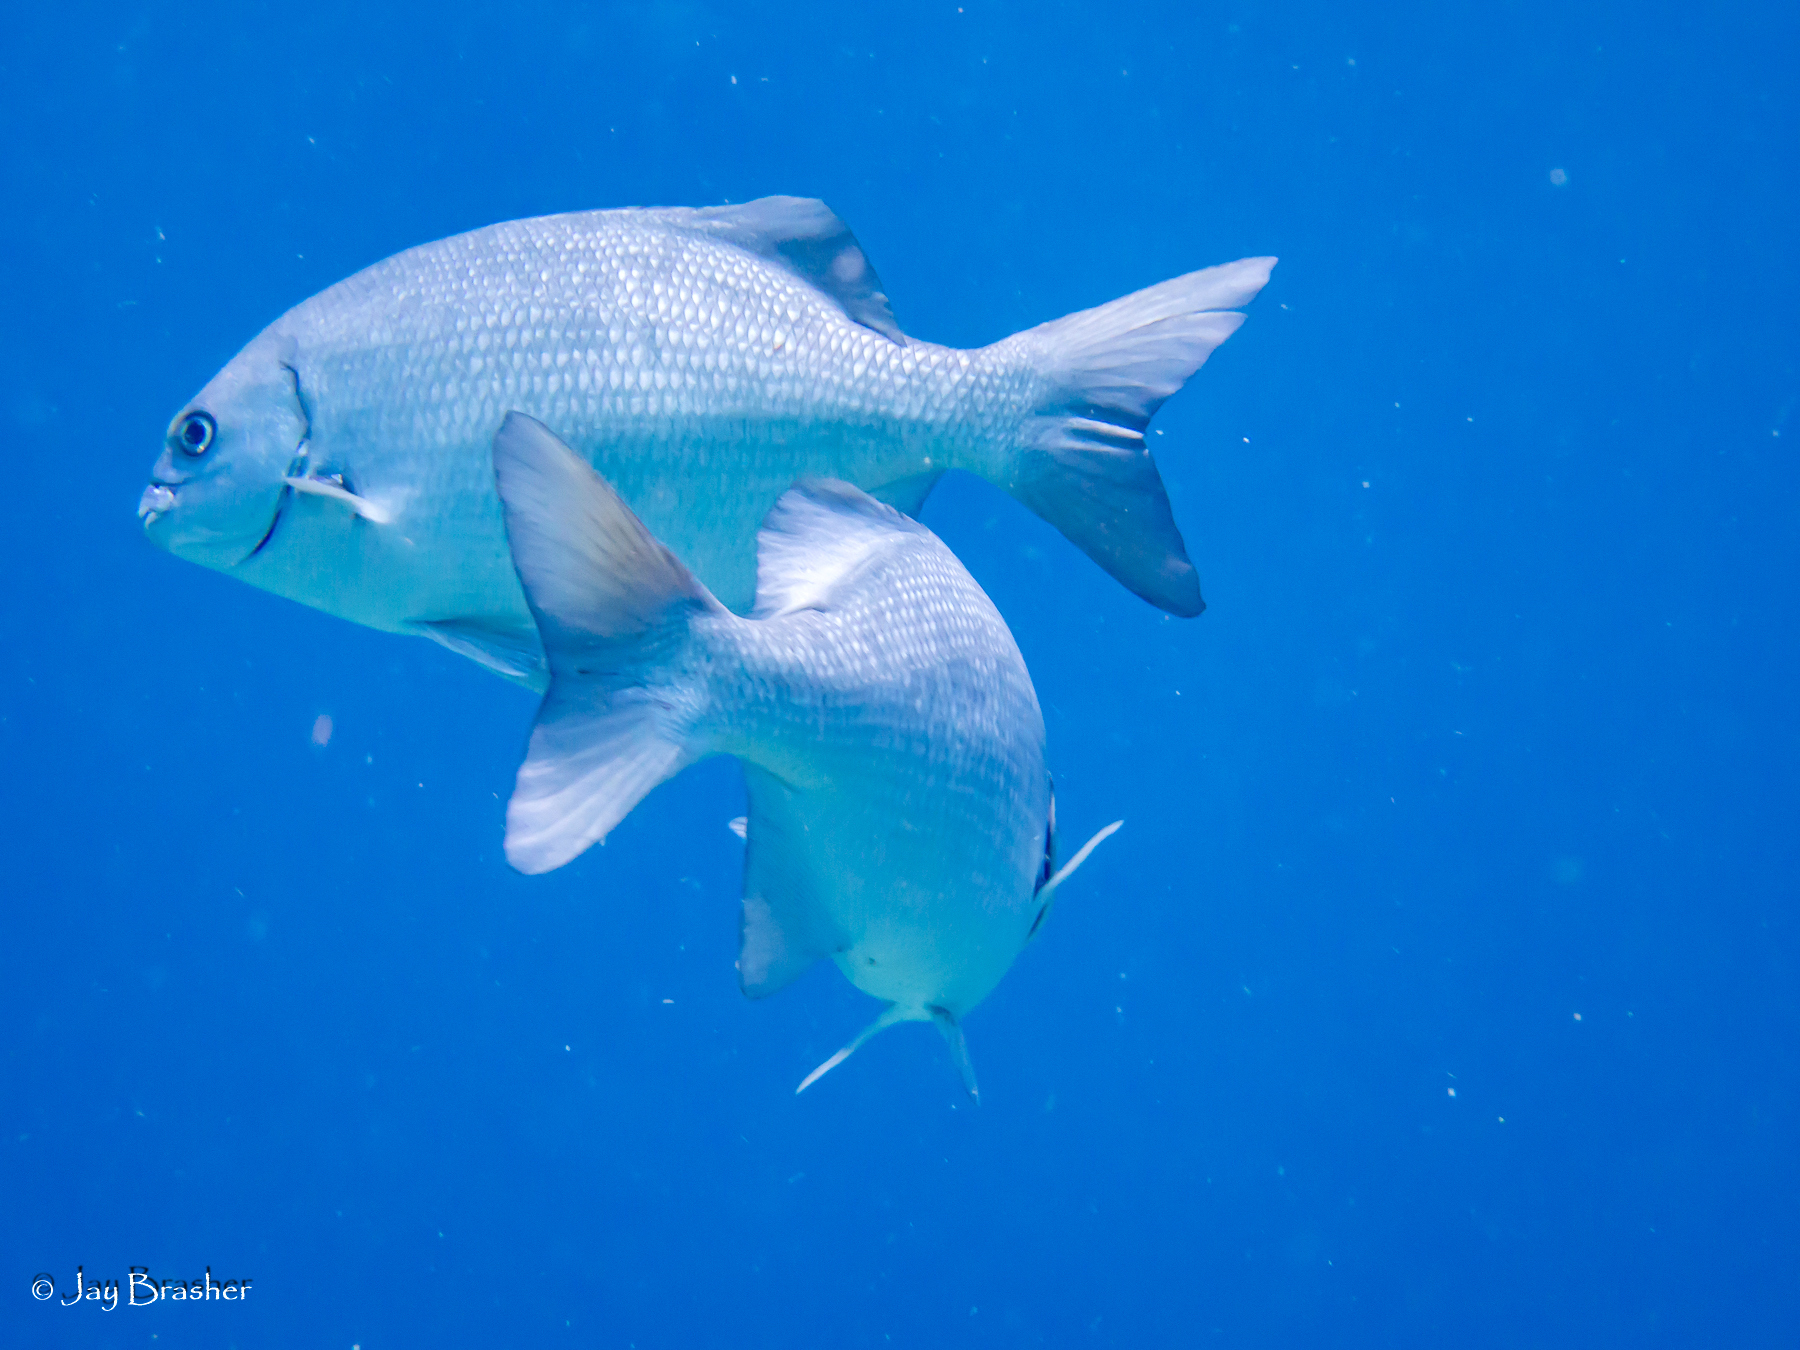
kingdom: Animalia
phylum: Chordata
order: Perciformes
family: Kyphosidae
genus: Kyphosus
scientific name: Kyphosus sectatrix
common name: Bermuda chub
